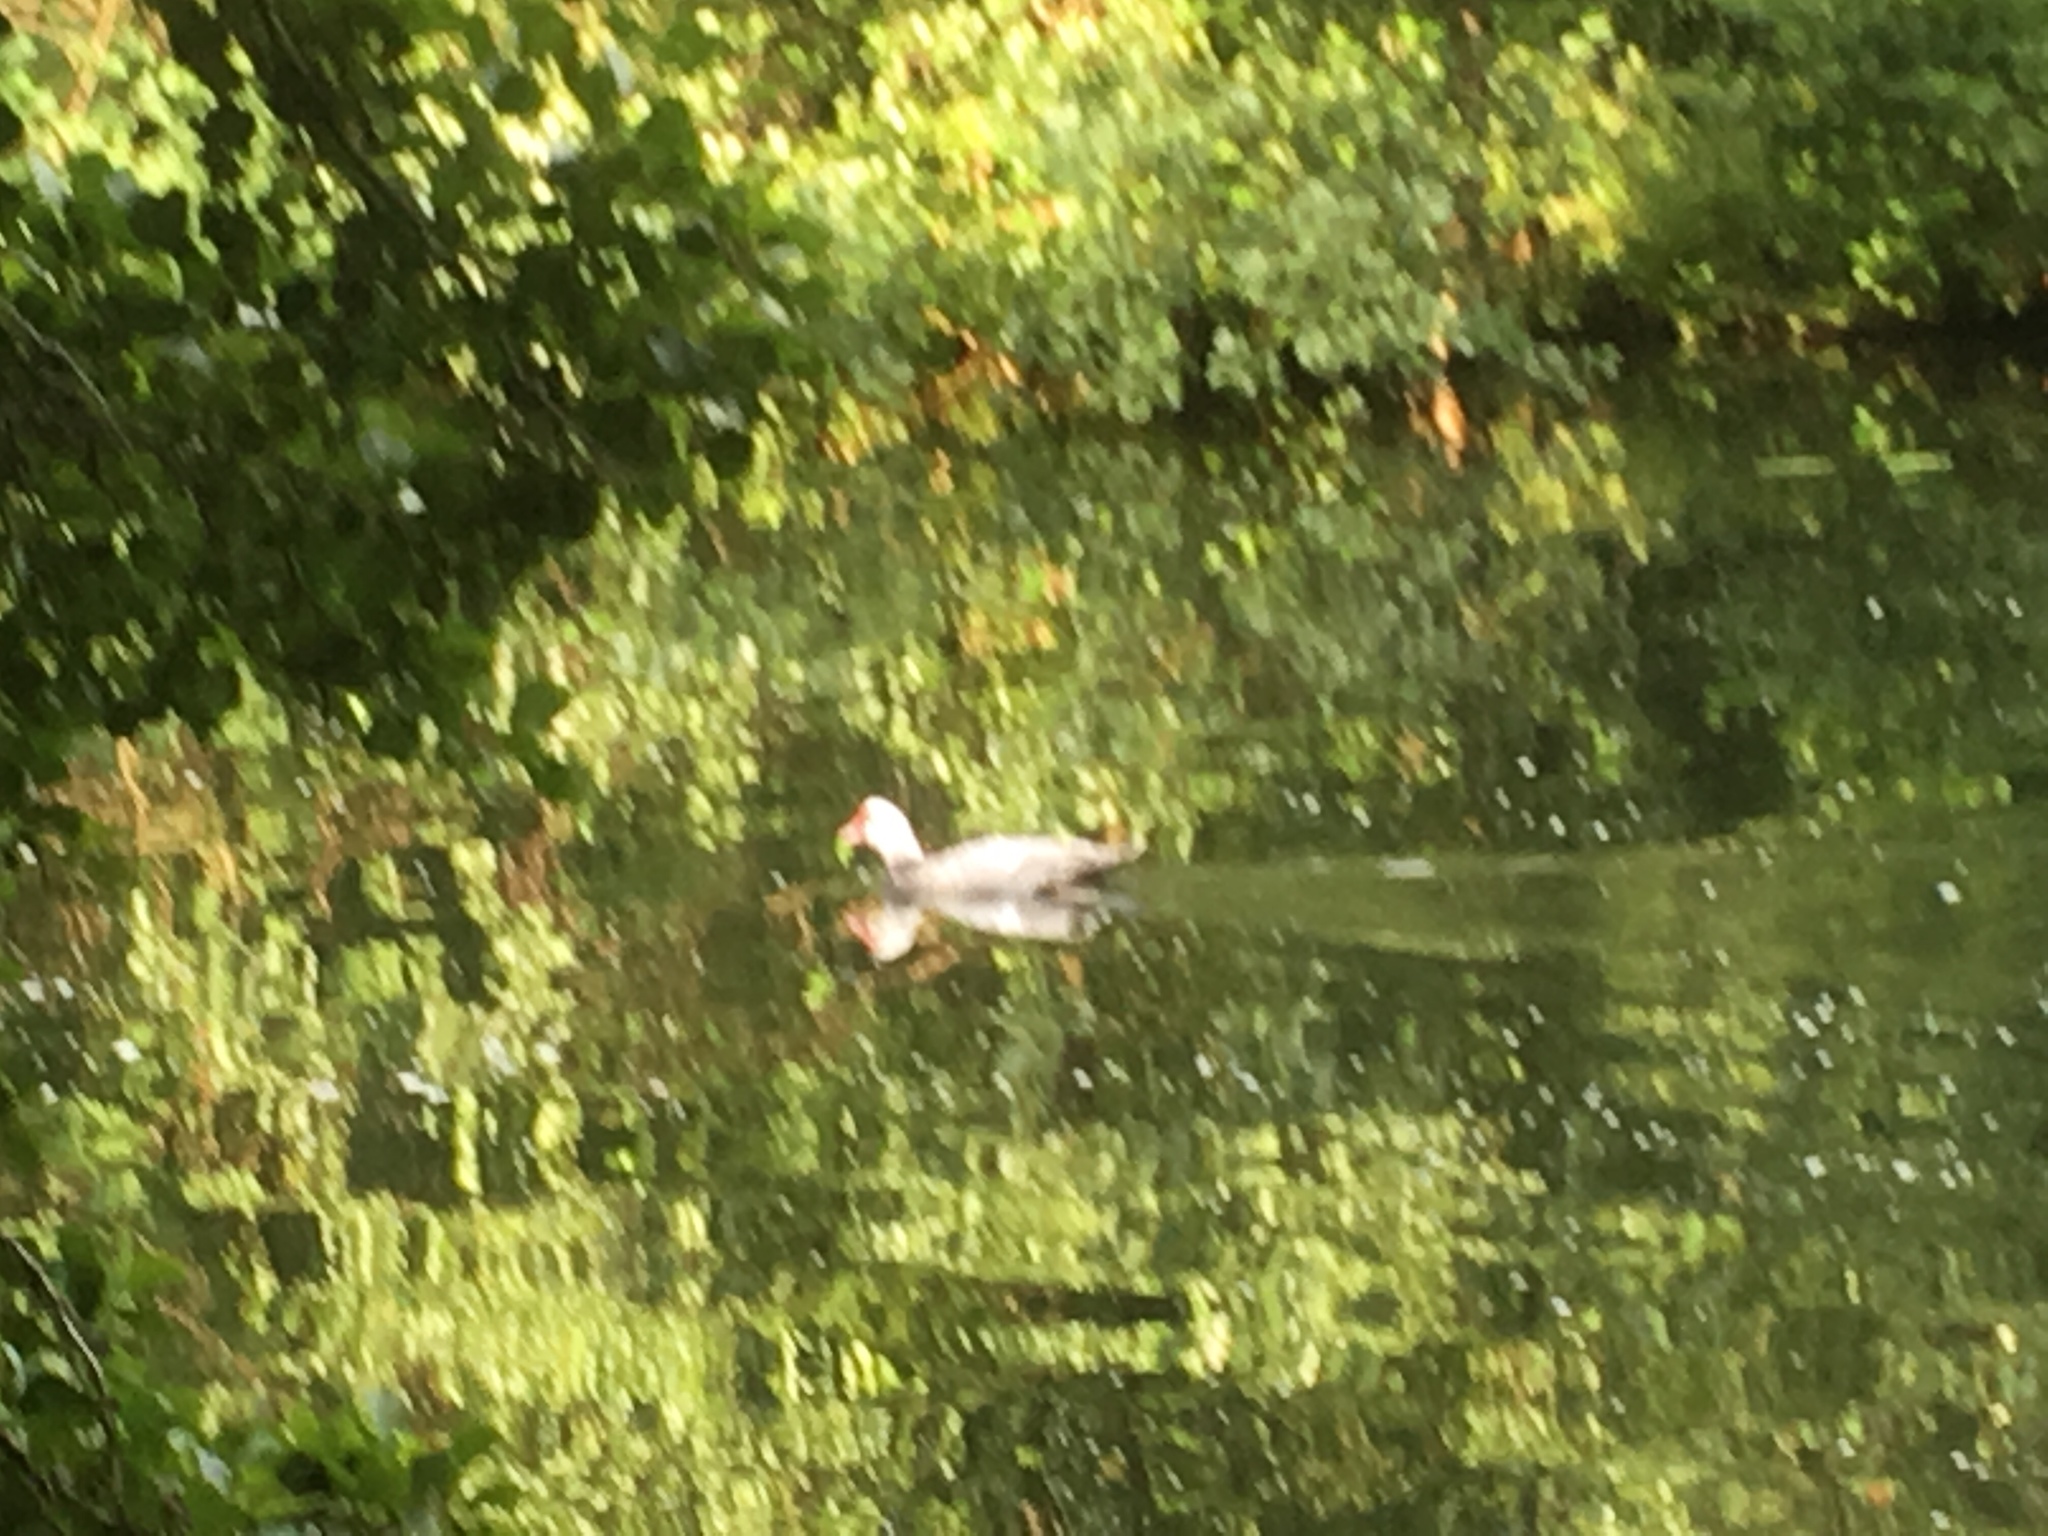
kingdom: Animalia
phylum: Chordata
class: Aves
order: Anseriformes
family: Anatidae
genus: Cairina
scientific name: Cairina moschata
